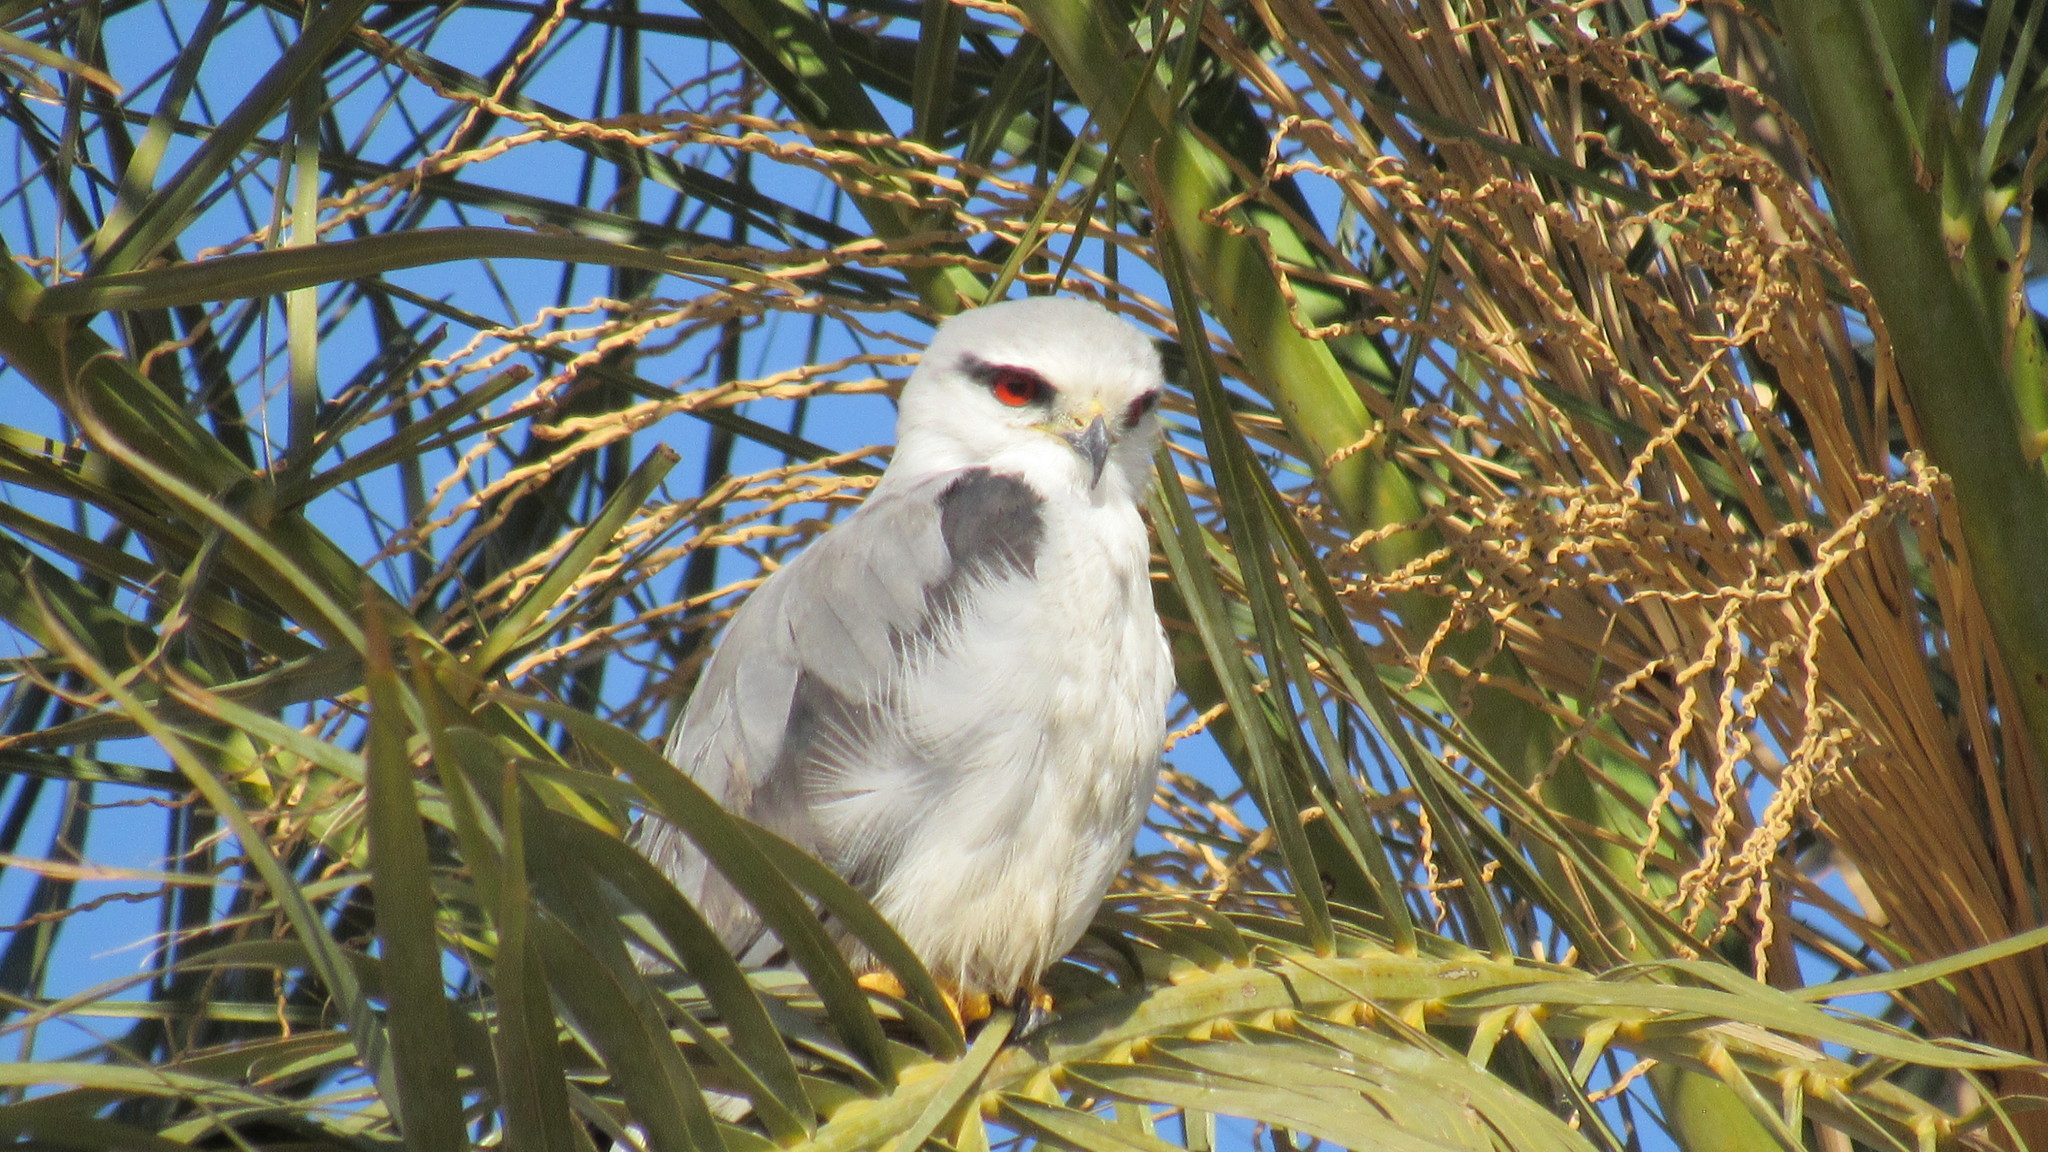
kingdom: Animalia
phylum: Chordata
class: Aves
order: Accipitriformes
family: Accipitridae
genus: Elanus
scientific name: Elanus caeruleus
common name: Black-winged kite
